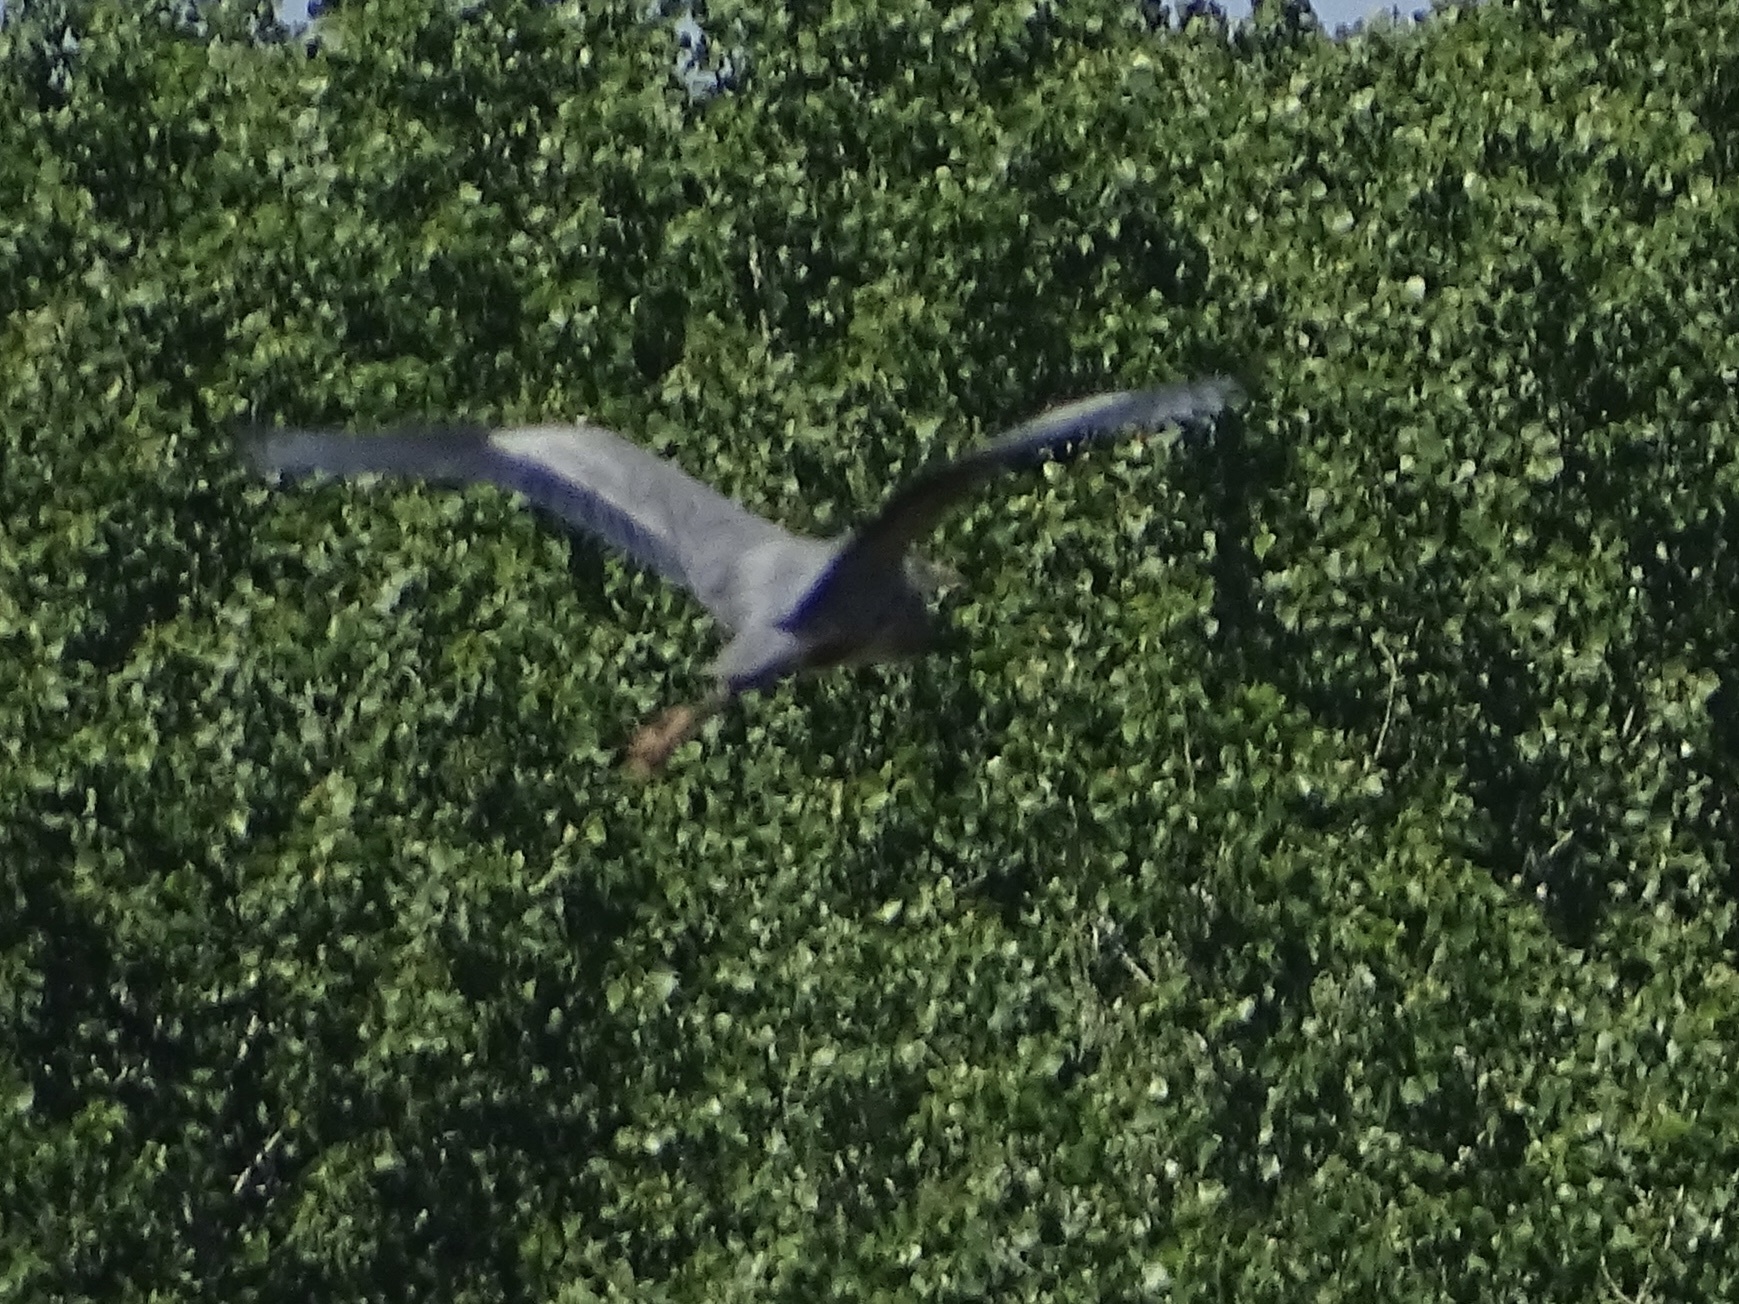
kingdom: Animalia
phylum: Chordata
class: Aves
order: Pelecaniformes
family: Ardeidae
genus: Ardea
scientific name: Ardea herodias
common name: Great blue heron
